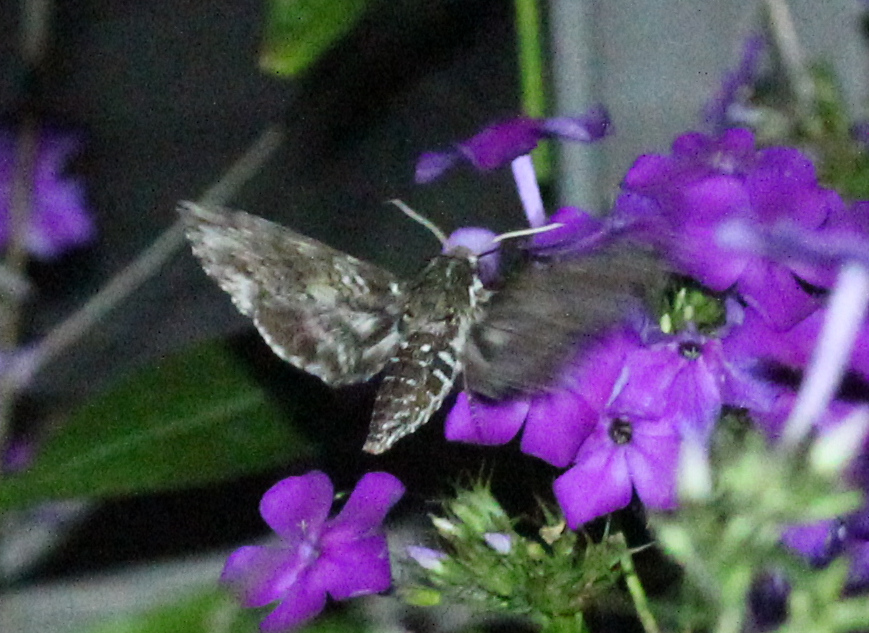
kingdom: Animalia
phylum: Arthropoda
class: Insecta
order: Lepidoptera
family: Sphingidae
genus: Dolba
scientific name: Dolba hyloeus
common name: Pawpaw sphinx
